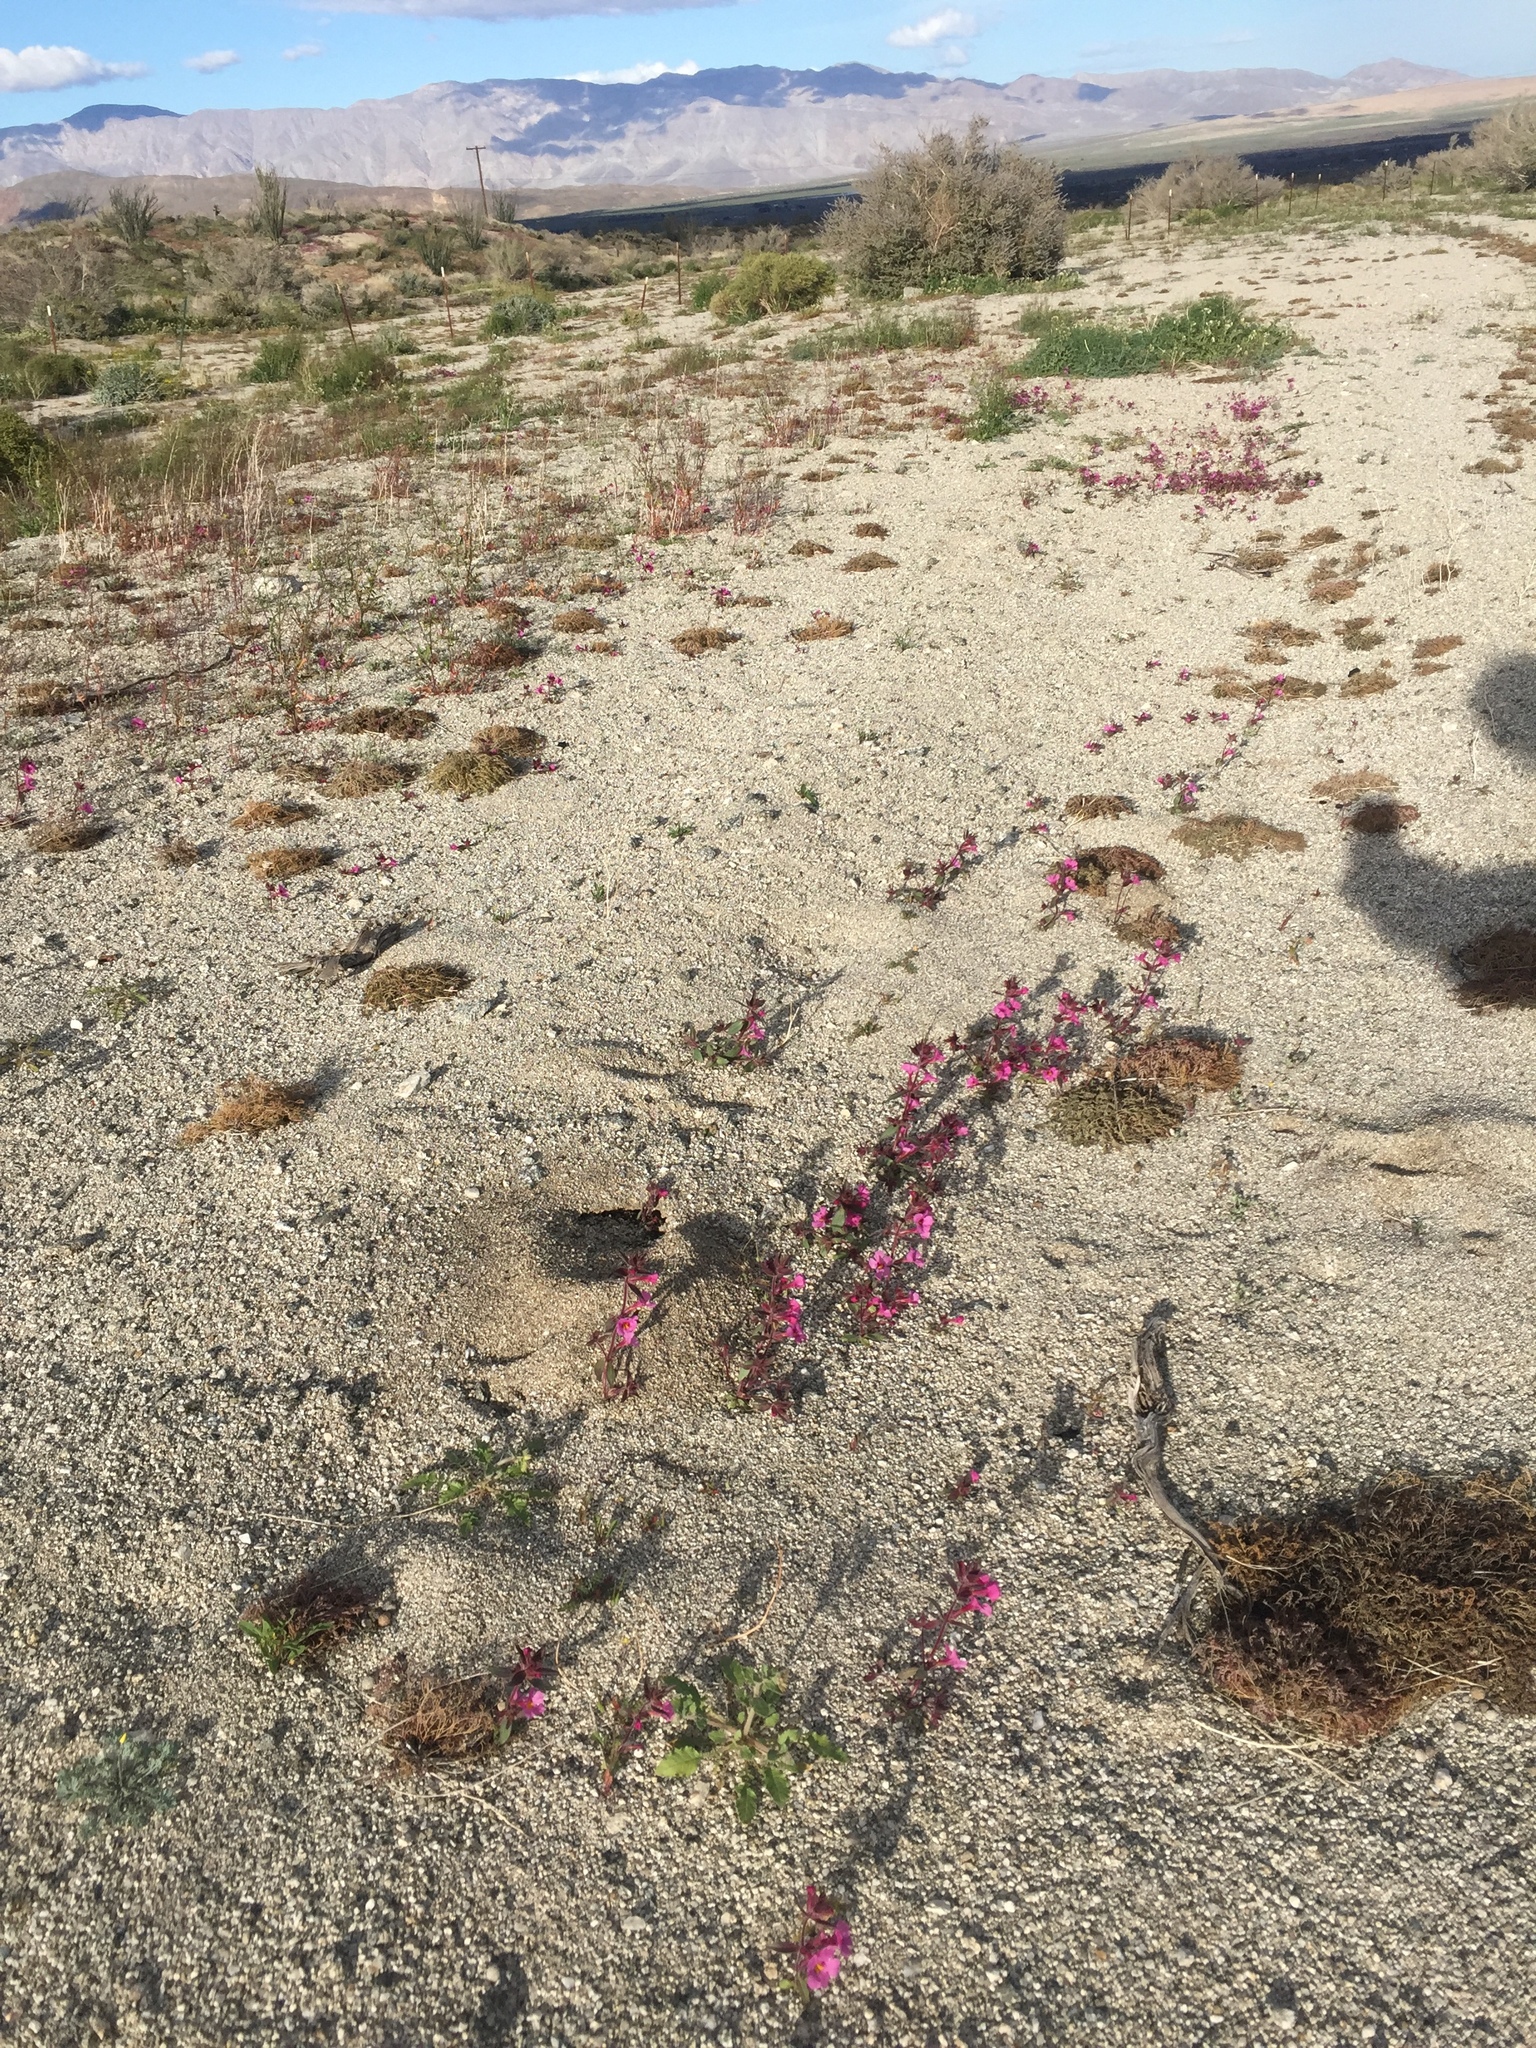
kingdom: Plantae
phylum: Tracheophyta
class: Magnoliopsida
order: Lamiales
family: Phrymaceae
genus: Diplacus
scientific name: Diplacus bigelovii
